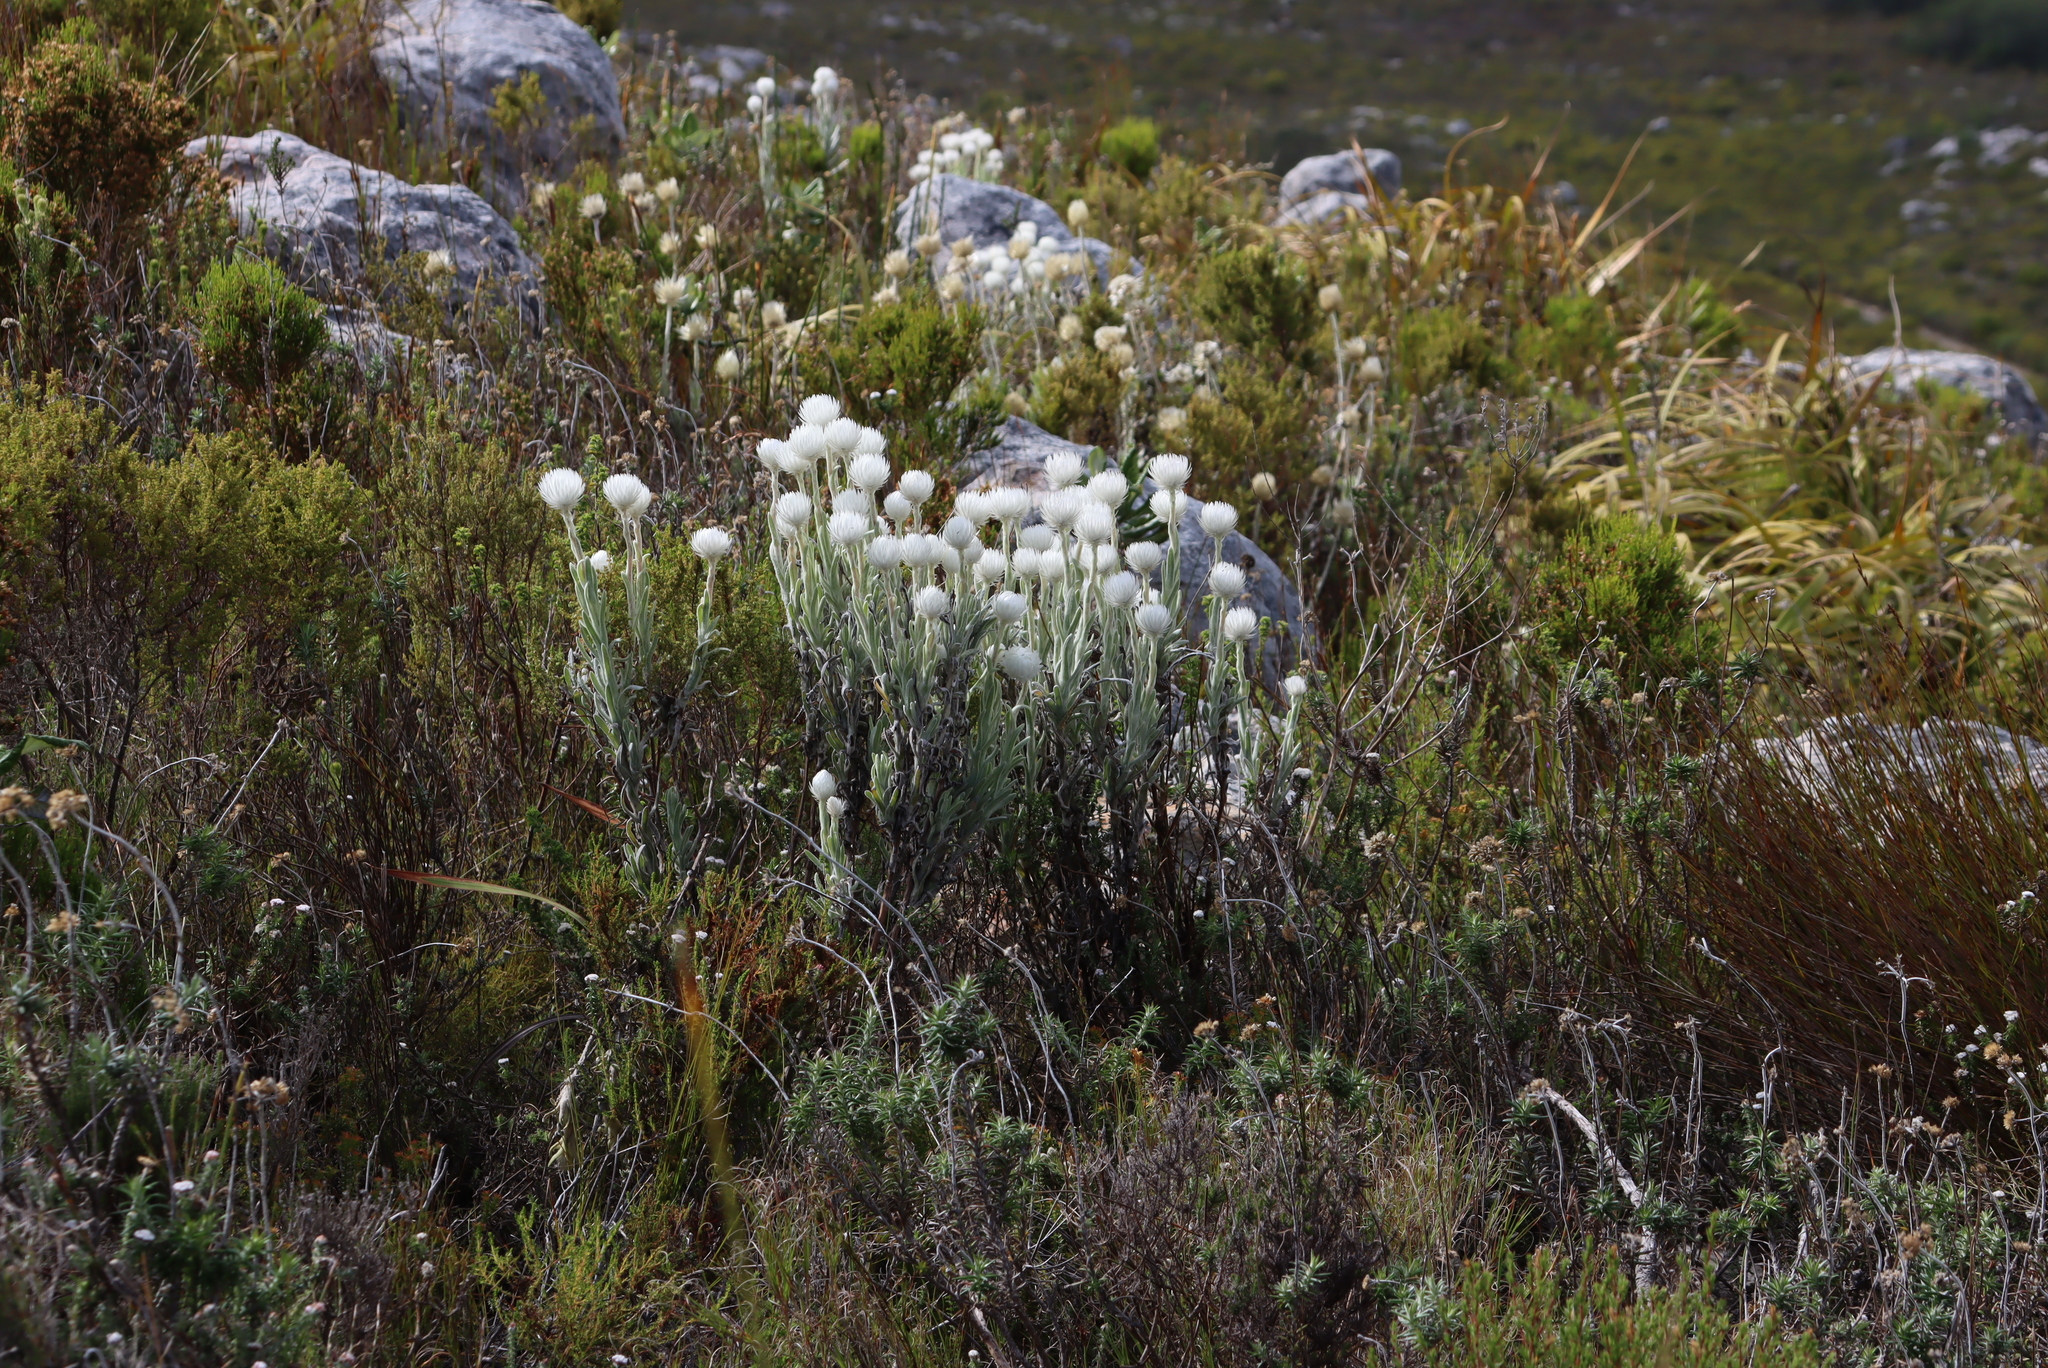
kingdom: Plantae
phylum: Tracheophyta
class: Magnoliopsida
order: Asterales
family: Asteraceae
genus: Syncarpha
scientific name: Syncarpha vestita
